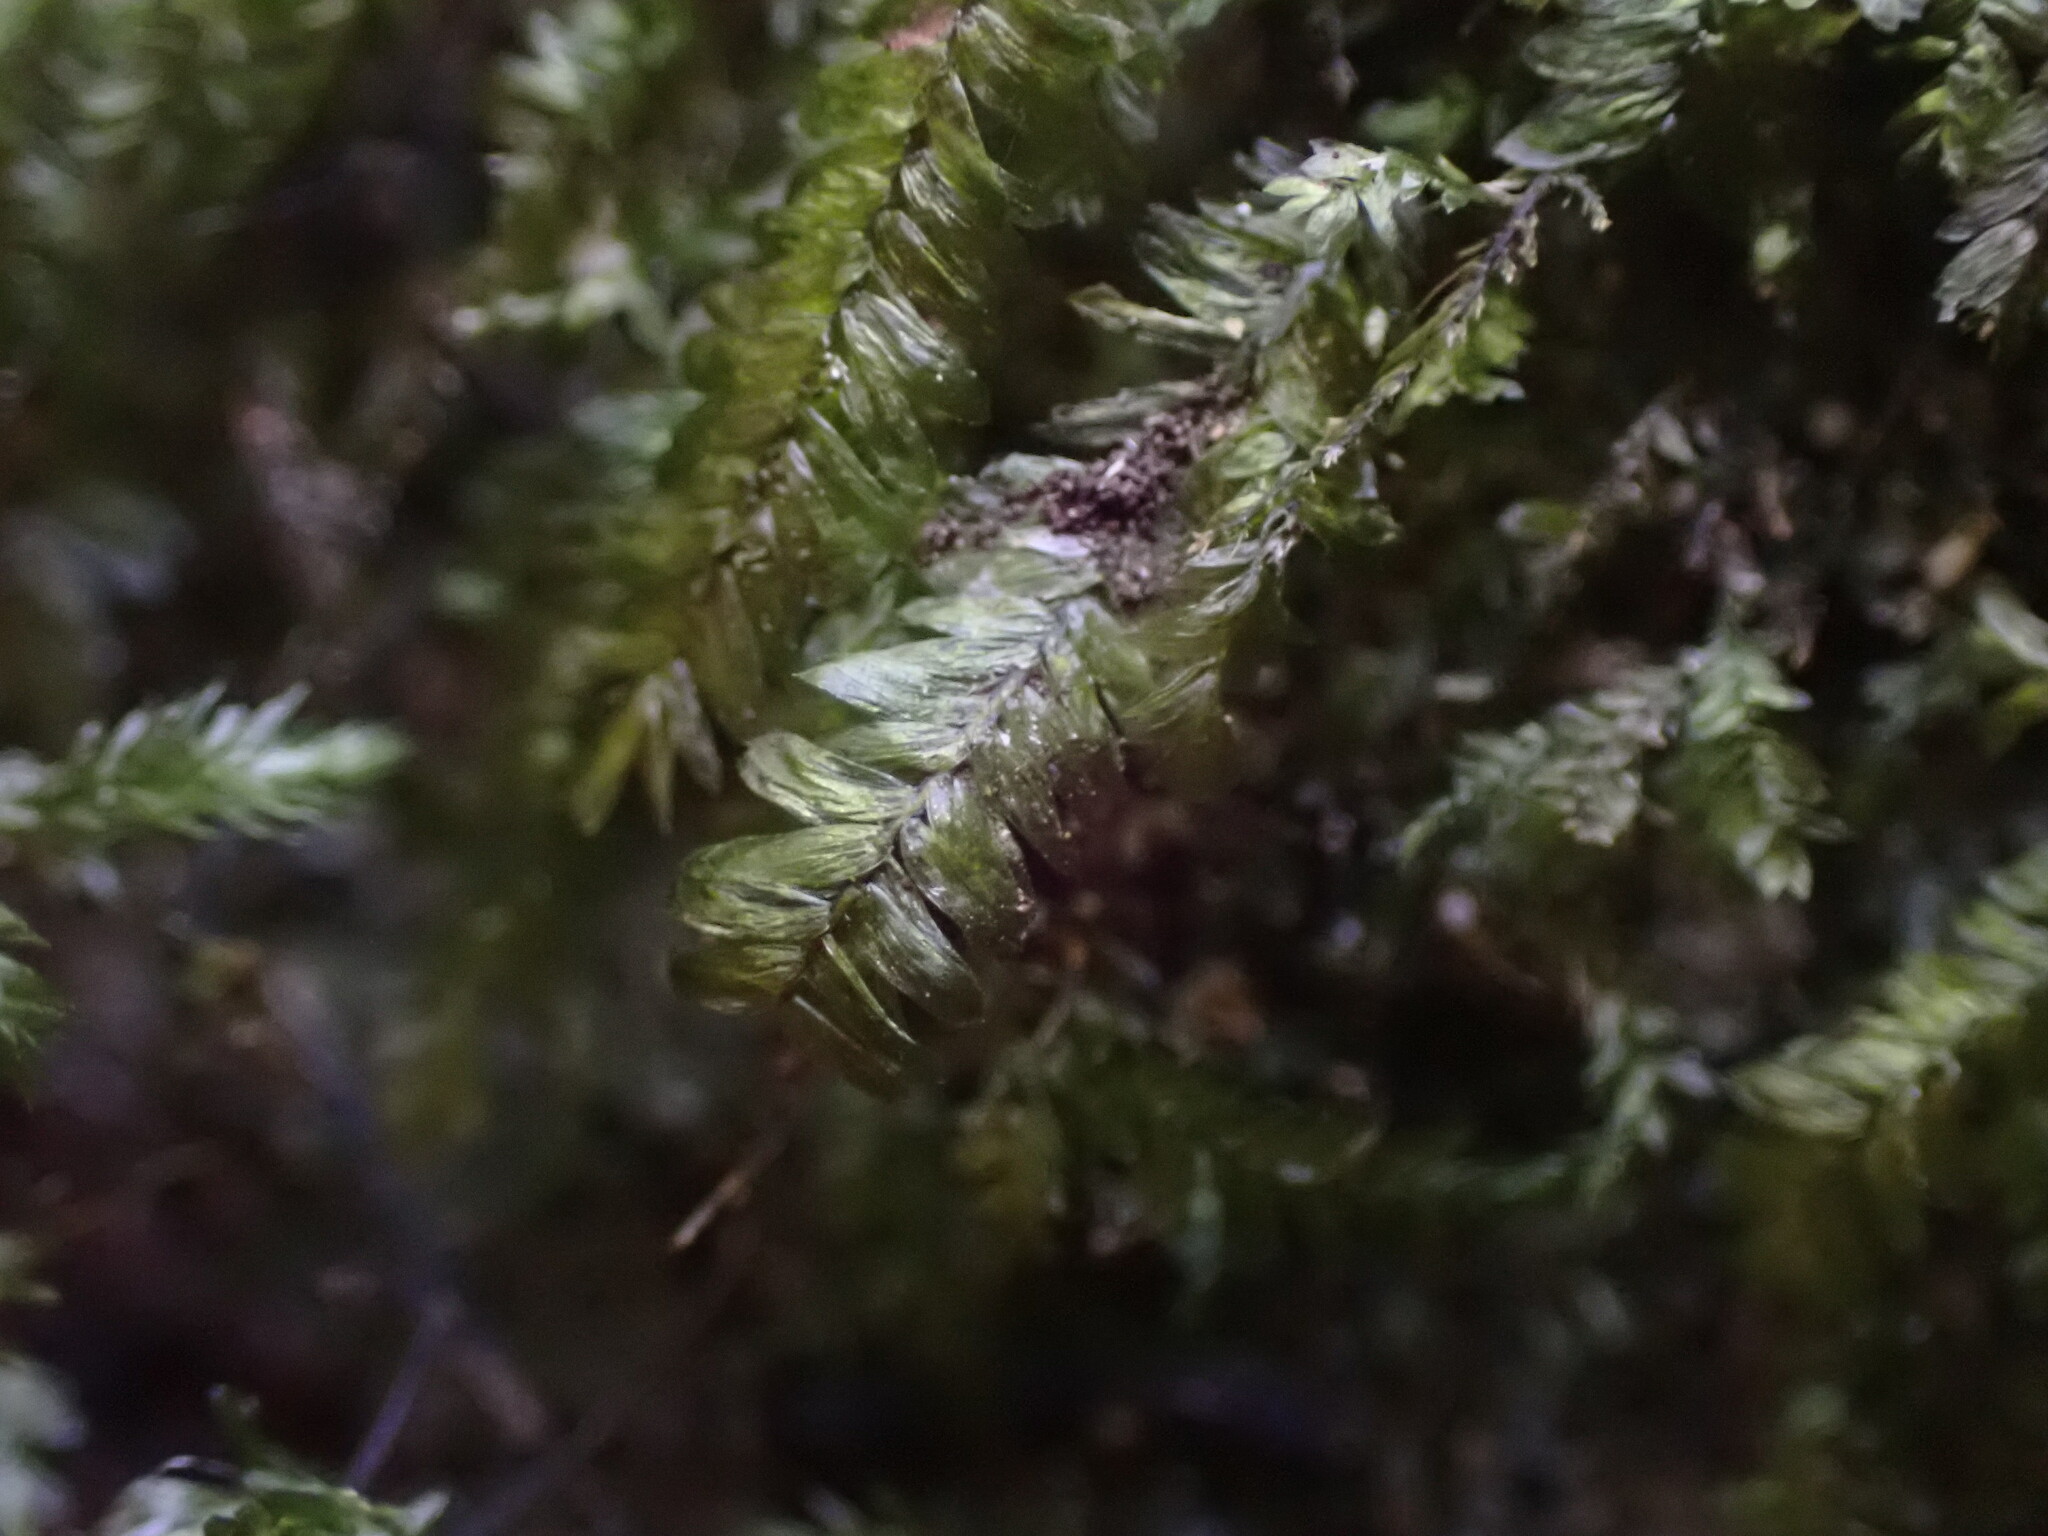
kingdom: Plantae
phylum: Bryophyta
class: Bryopsida
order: Hypnales
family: Neckeraceae
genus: Dannorrisia
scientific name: Dannorrisia bigelovii
